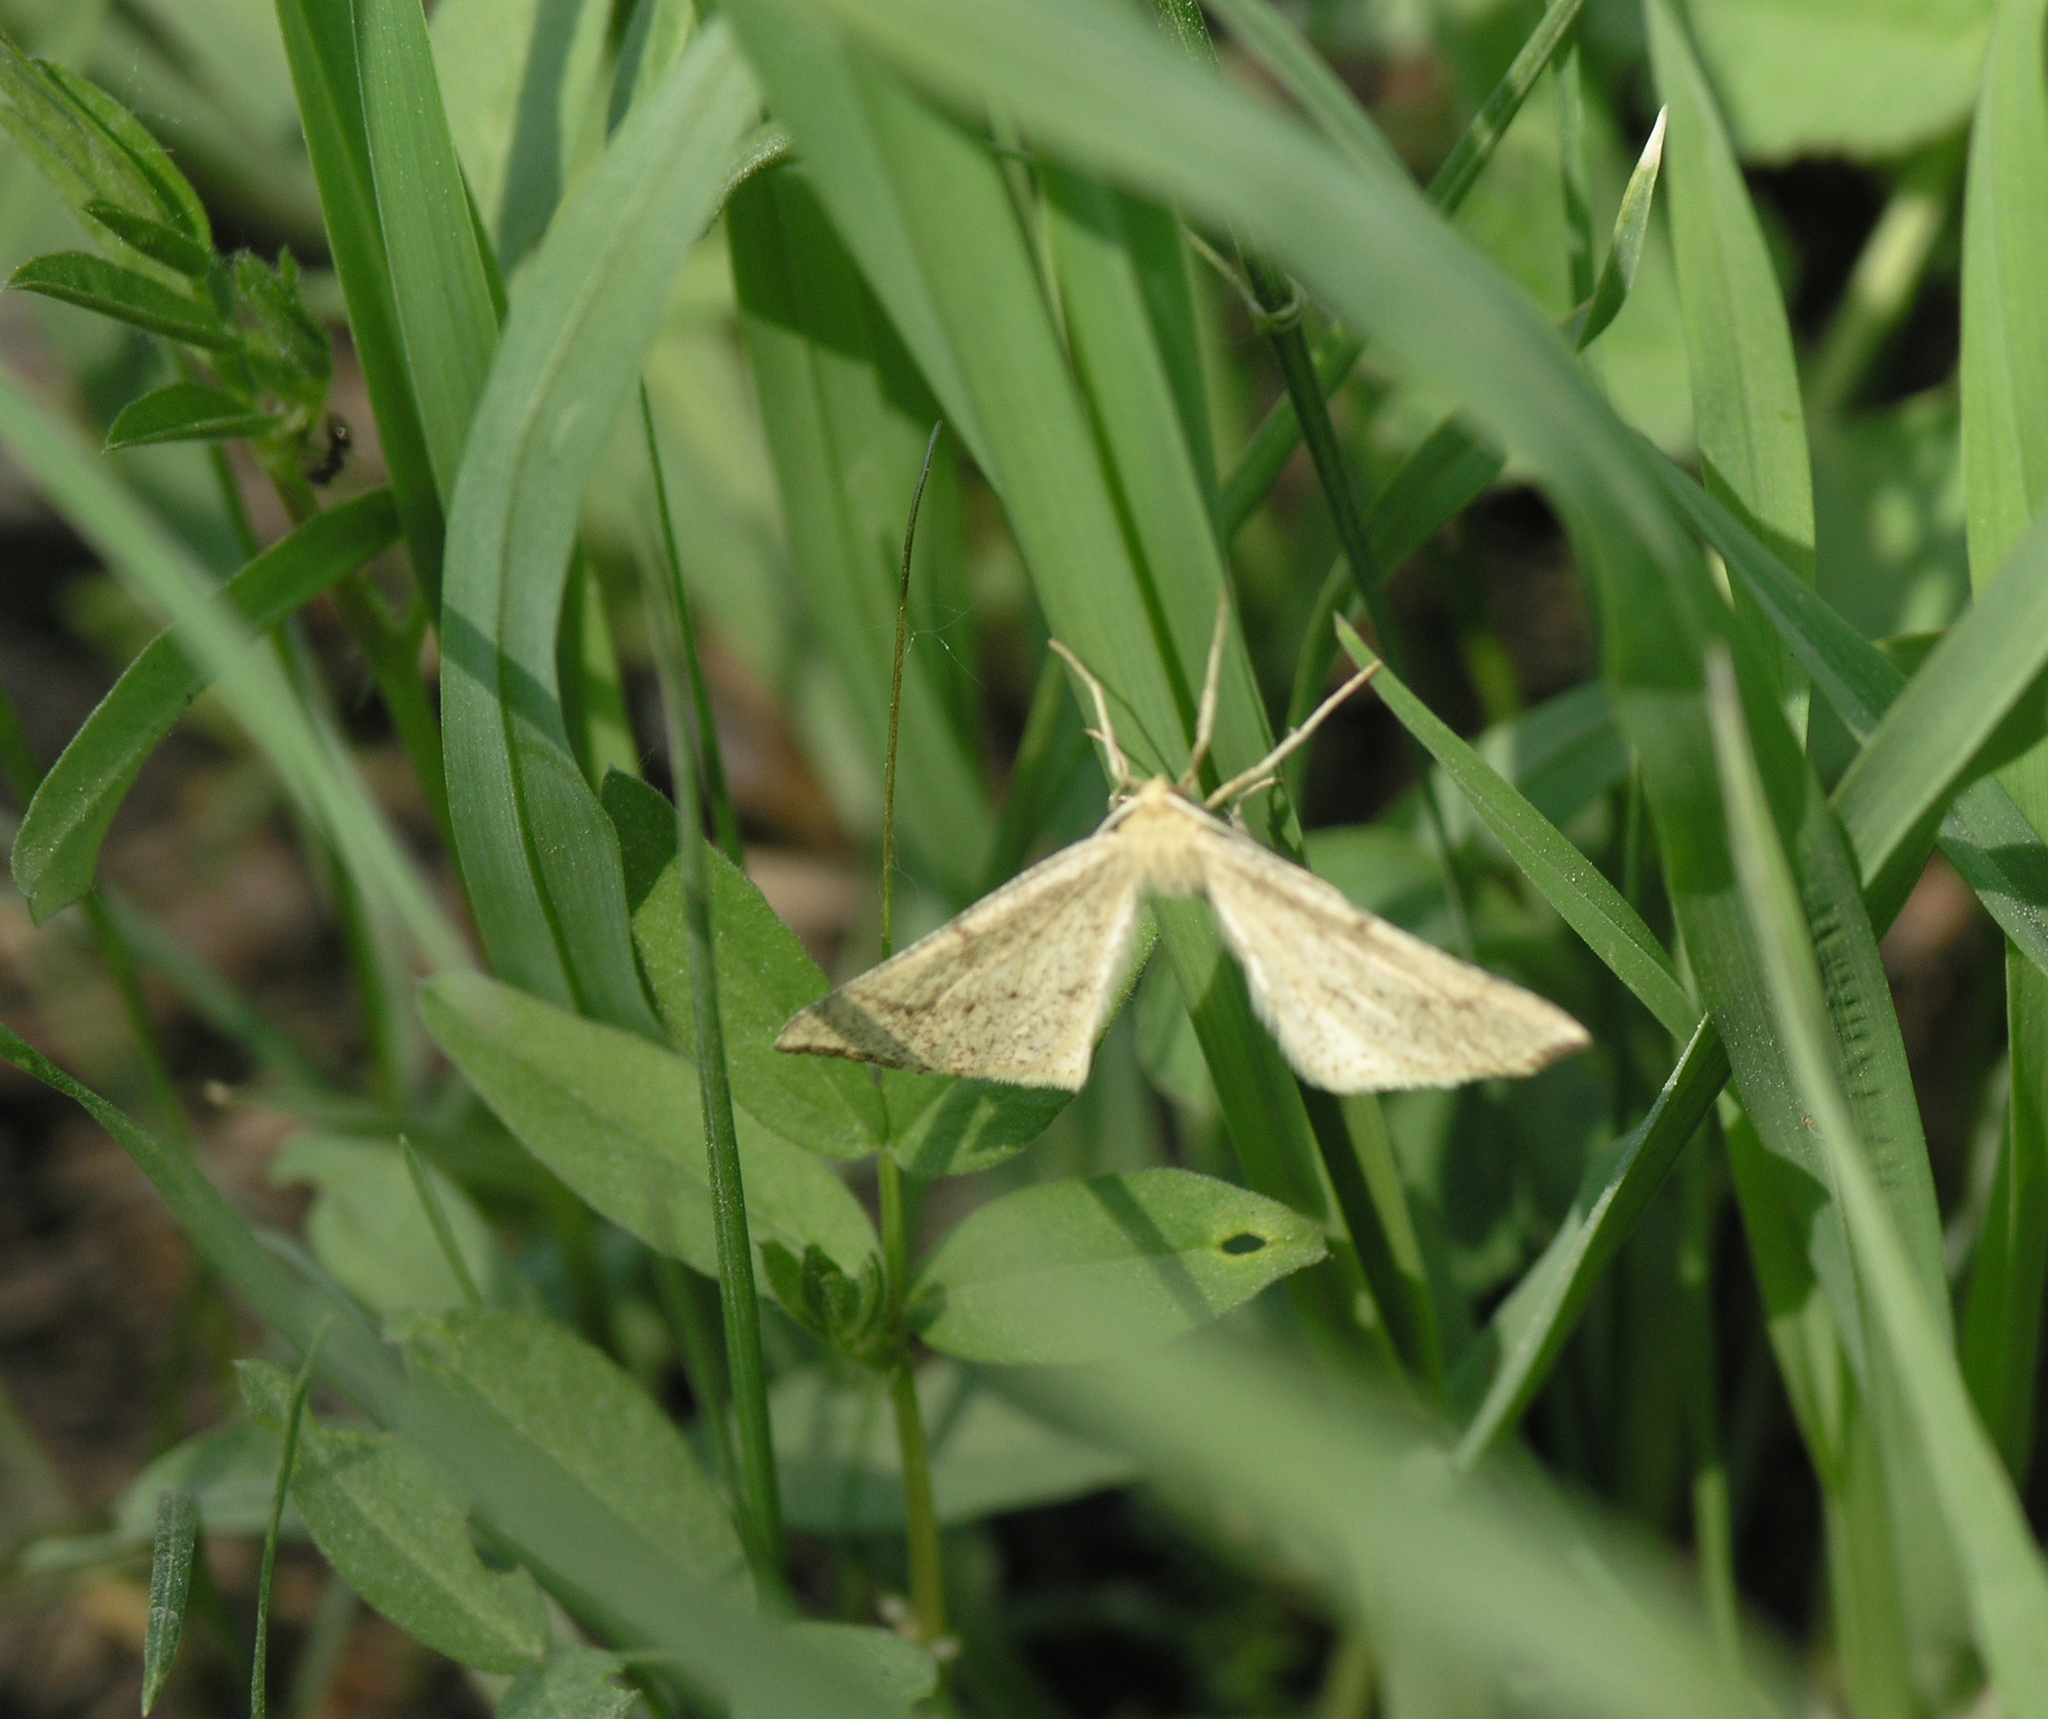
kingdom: Animalia
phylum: Arthropoda
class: Insecta
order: Lepidoptera
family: Geometridae
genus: Hypoxystis
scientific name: Hypoxystis pluviaria
